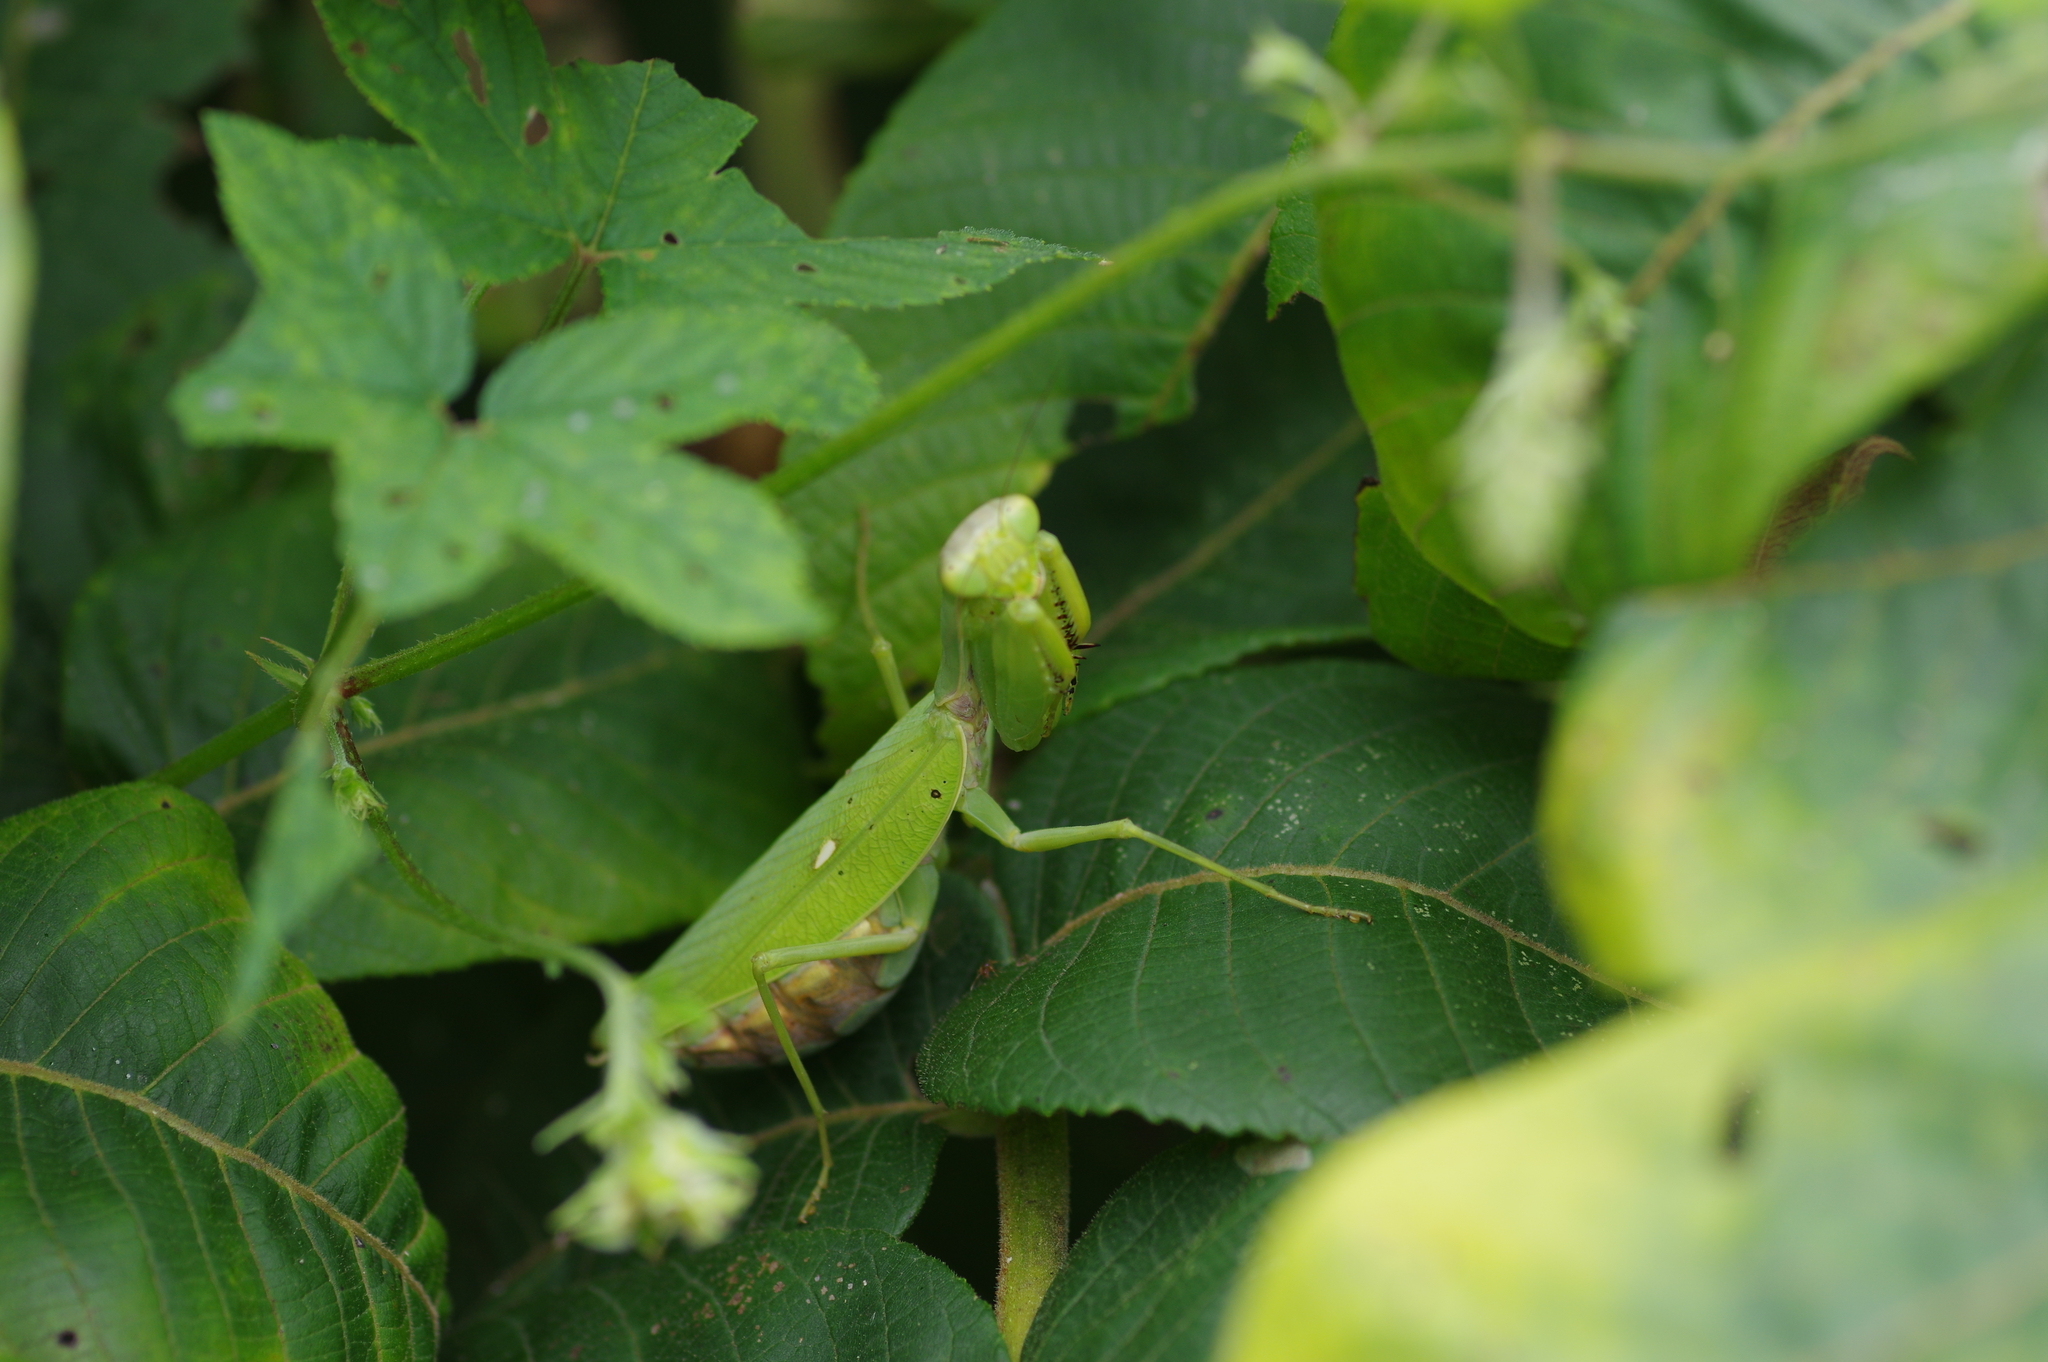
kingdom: Animalia
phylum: Arthropoda
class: Insecta
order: Mantodea
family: Mantidae
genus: Hierodula
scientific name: Hierodula patellifera
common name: Asian mantis
